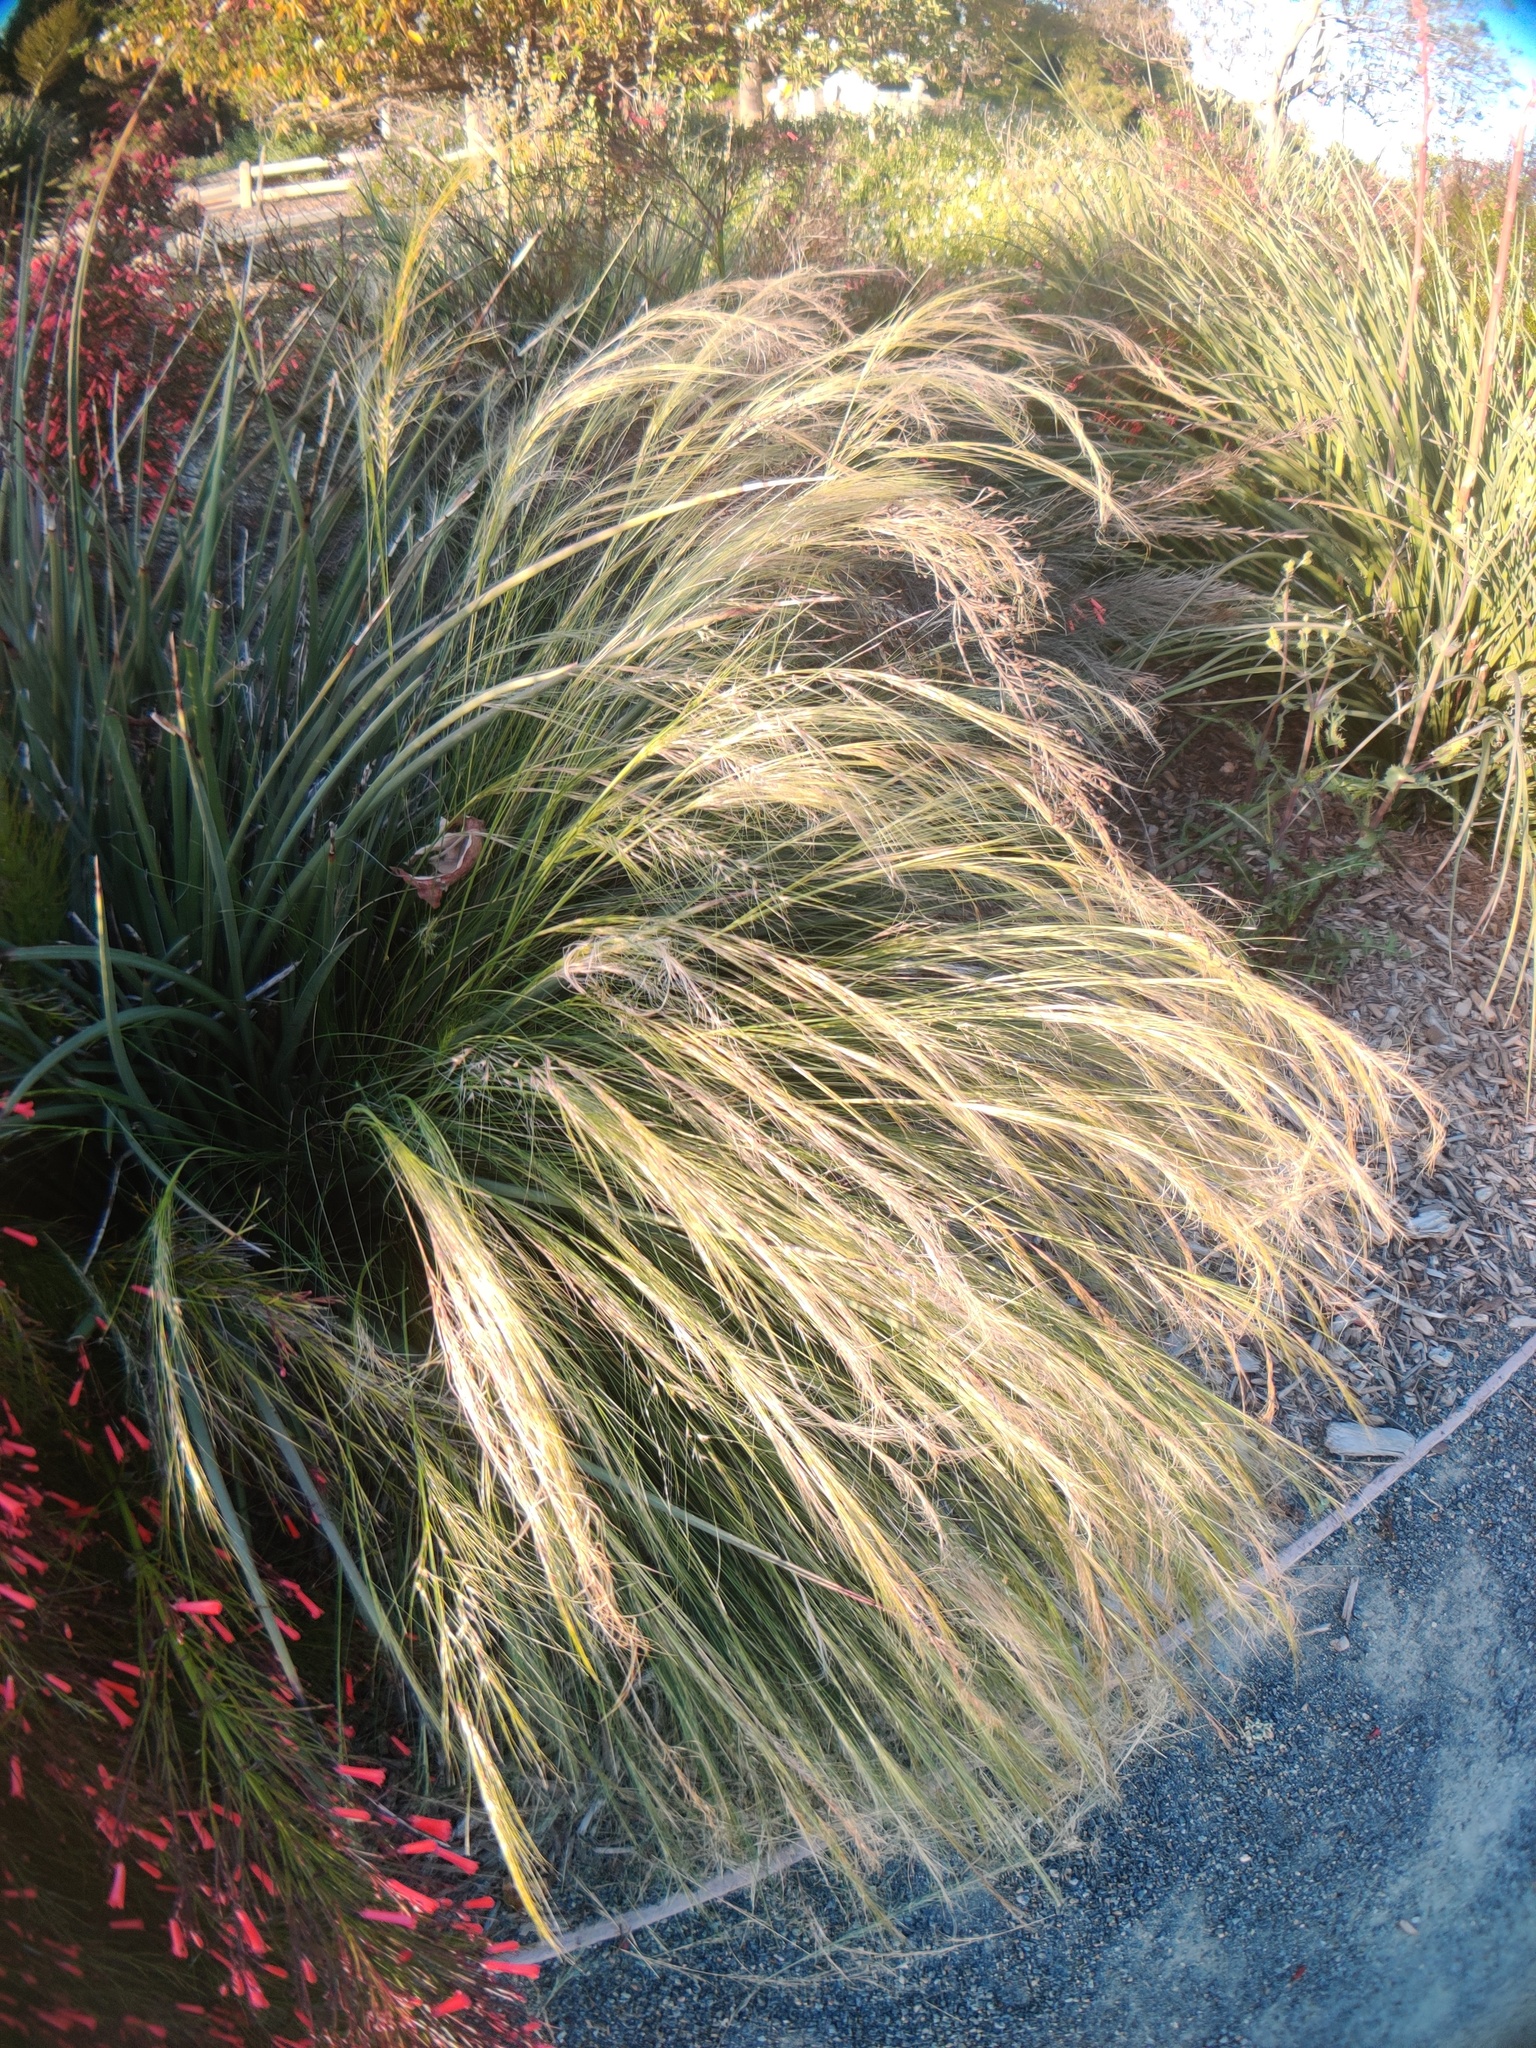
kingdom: Plantae
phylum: Tracheophyta
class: Liliopsida
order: Poales
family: Poaceae
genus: Nassella
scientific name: Nassella tenuissima
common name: Argentine needlegrass
